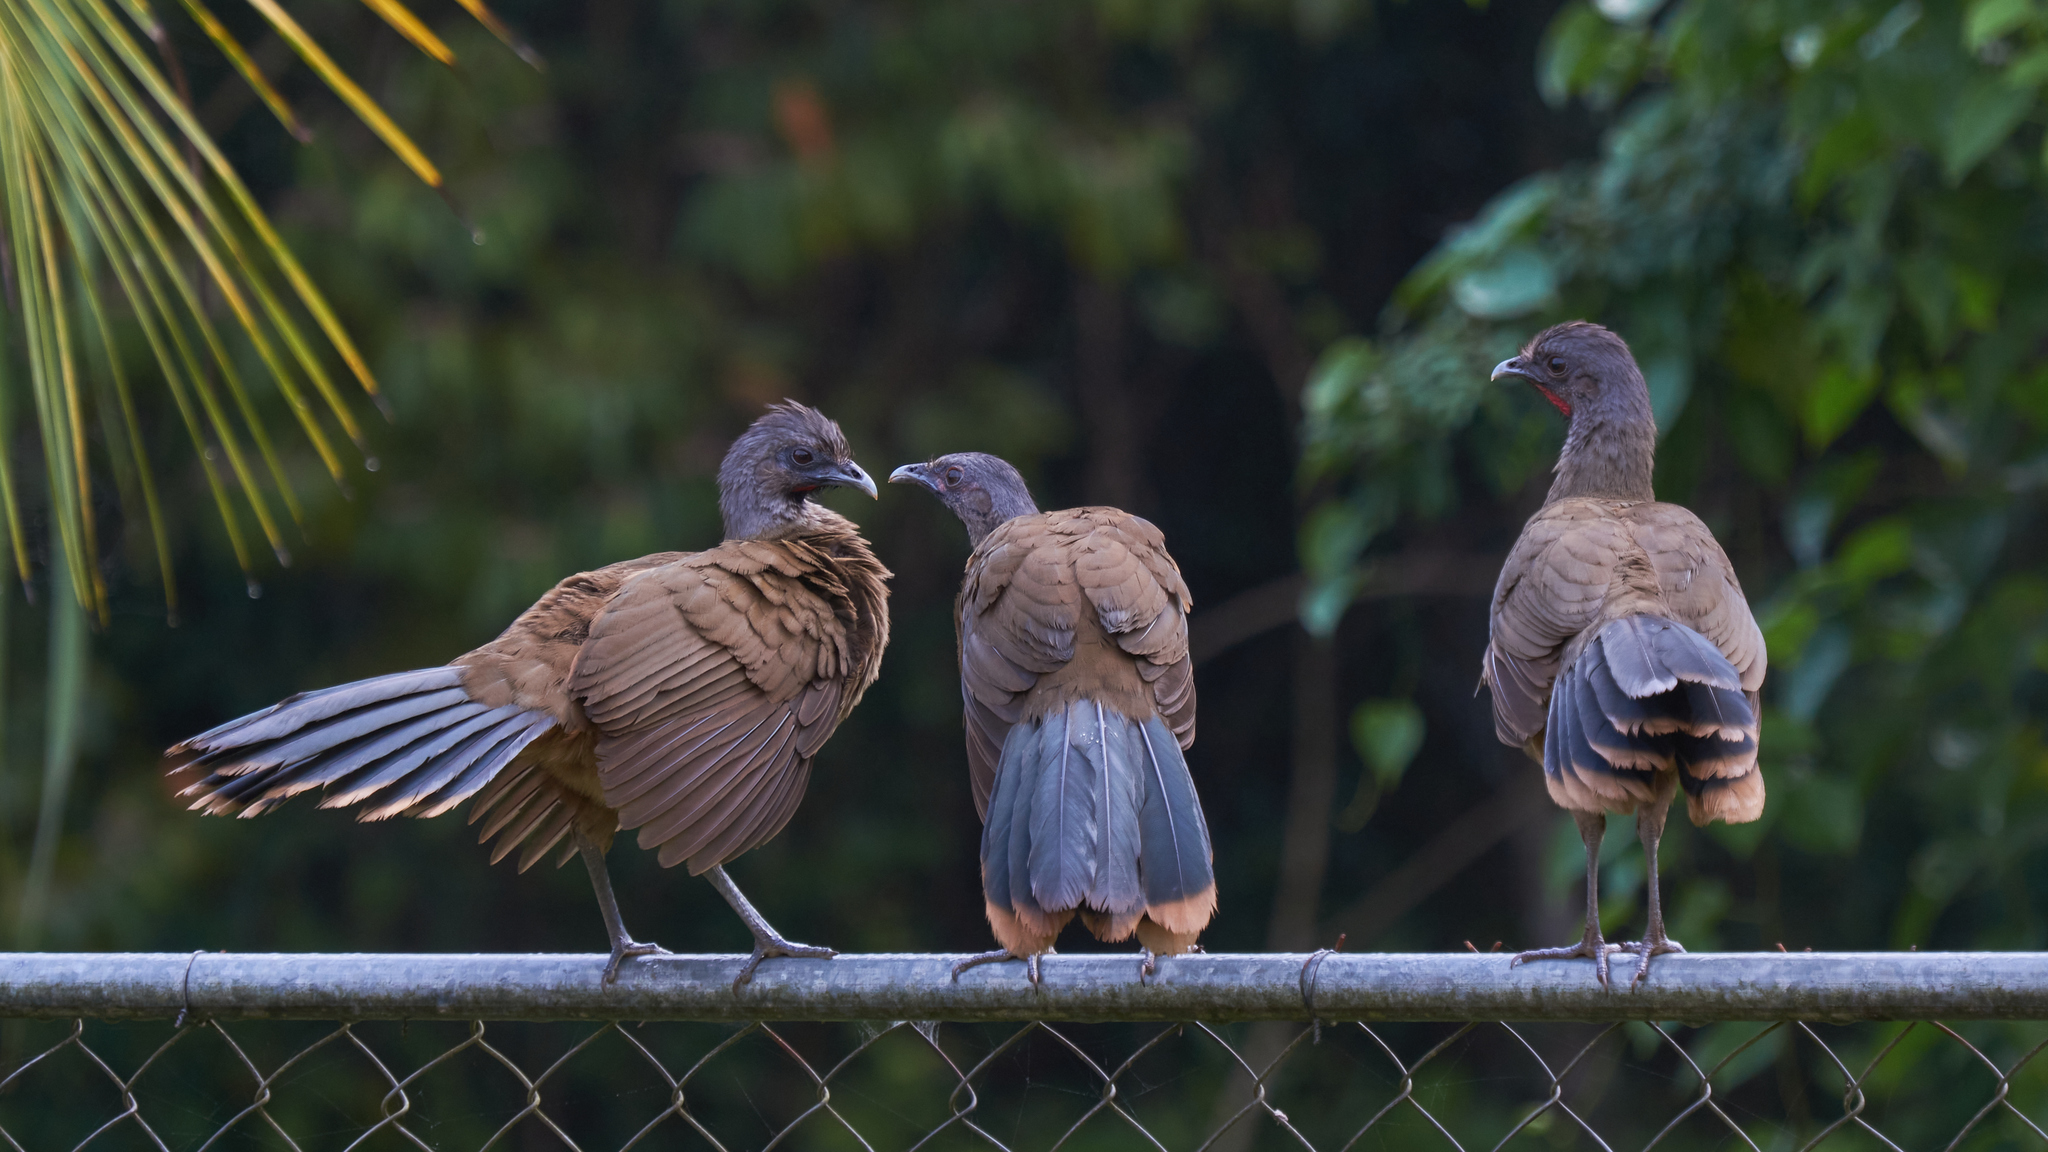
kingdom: Animalia
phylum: Chordata
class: Aves
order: Galliformes
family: Cracidae
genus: Ortalis
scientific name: Ortalis vetula
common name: Plain chachalaca
